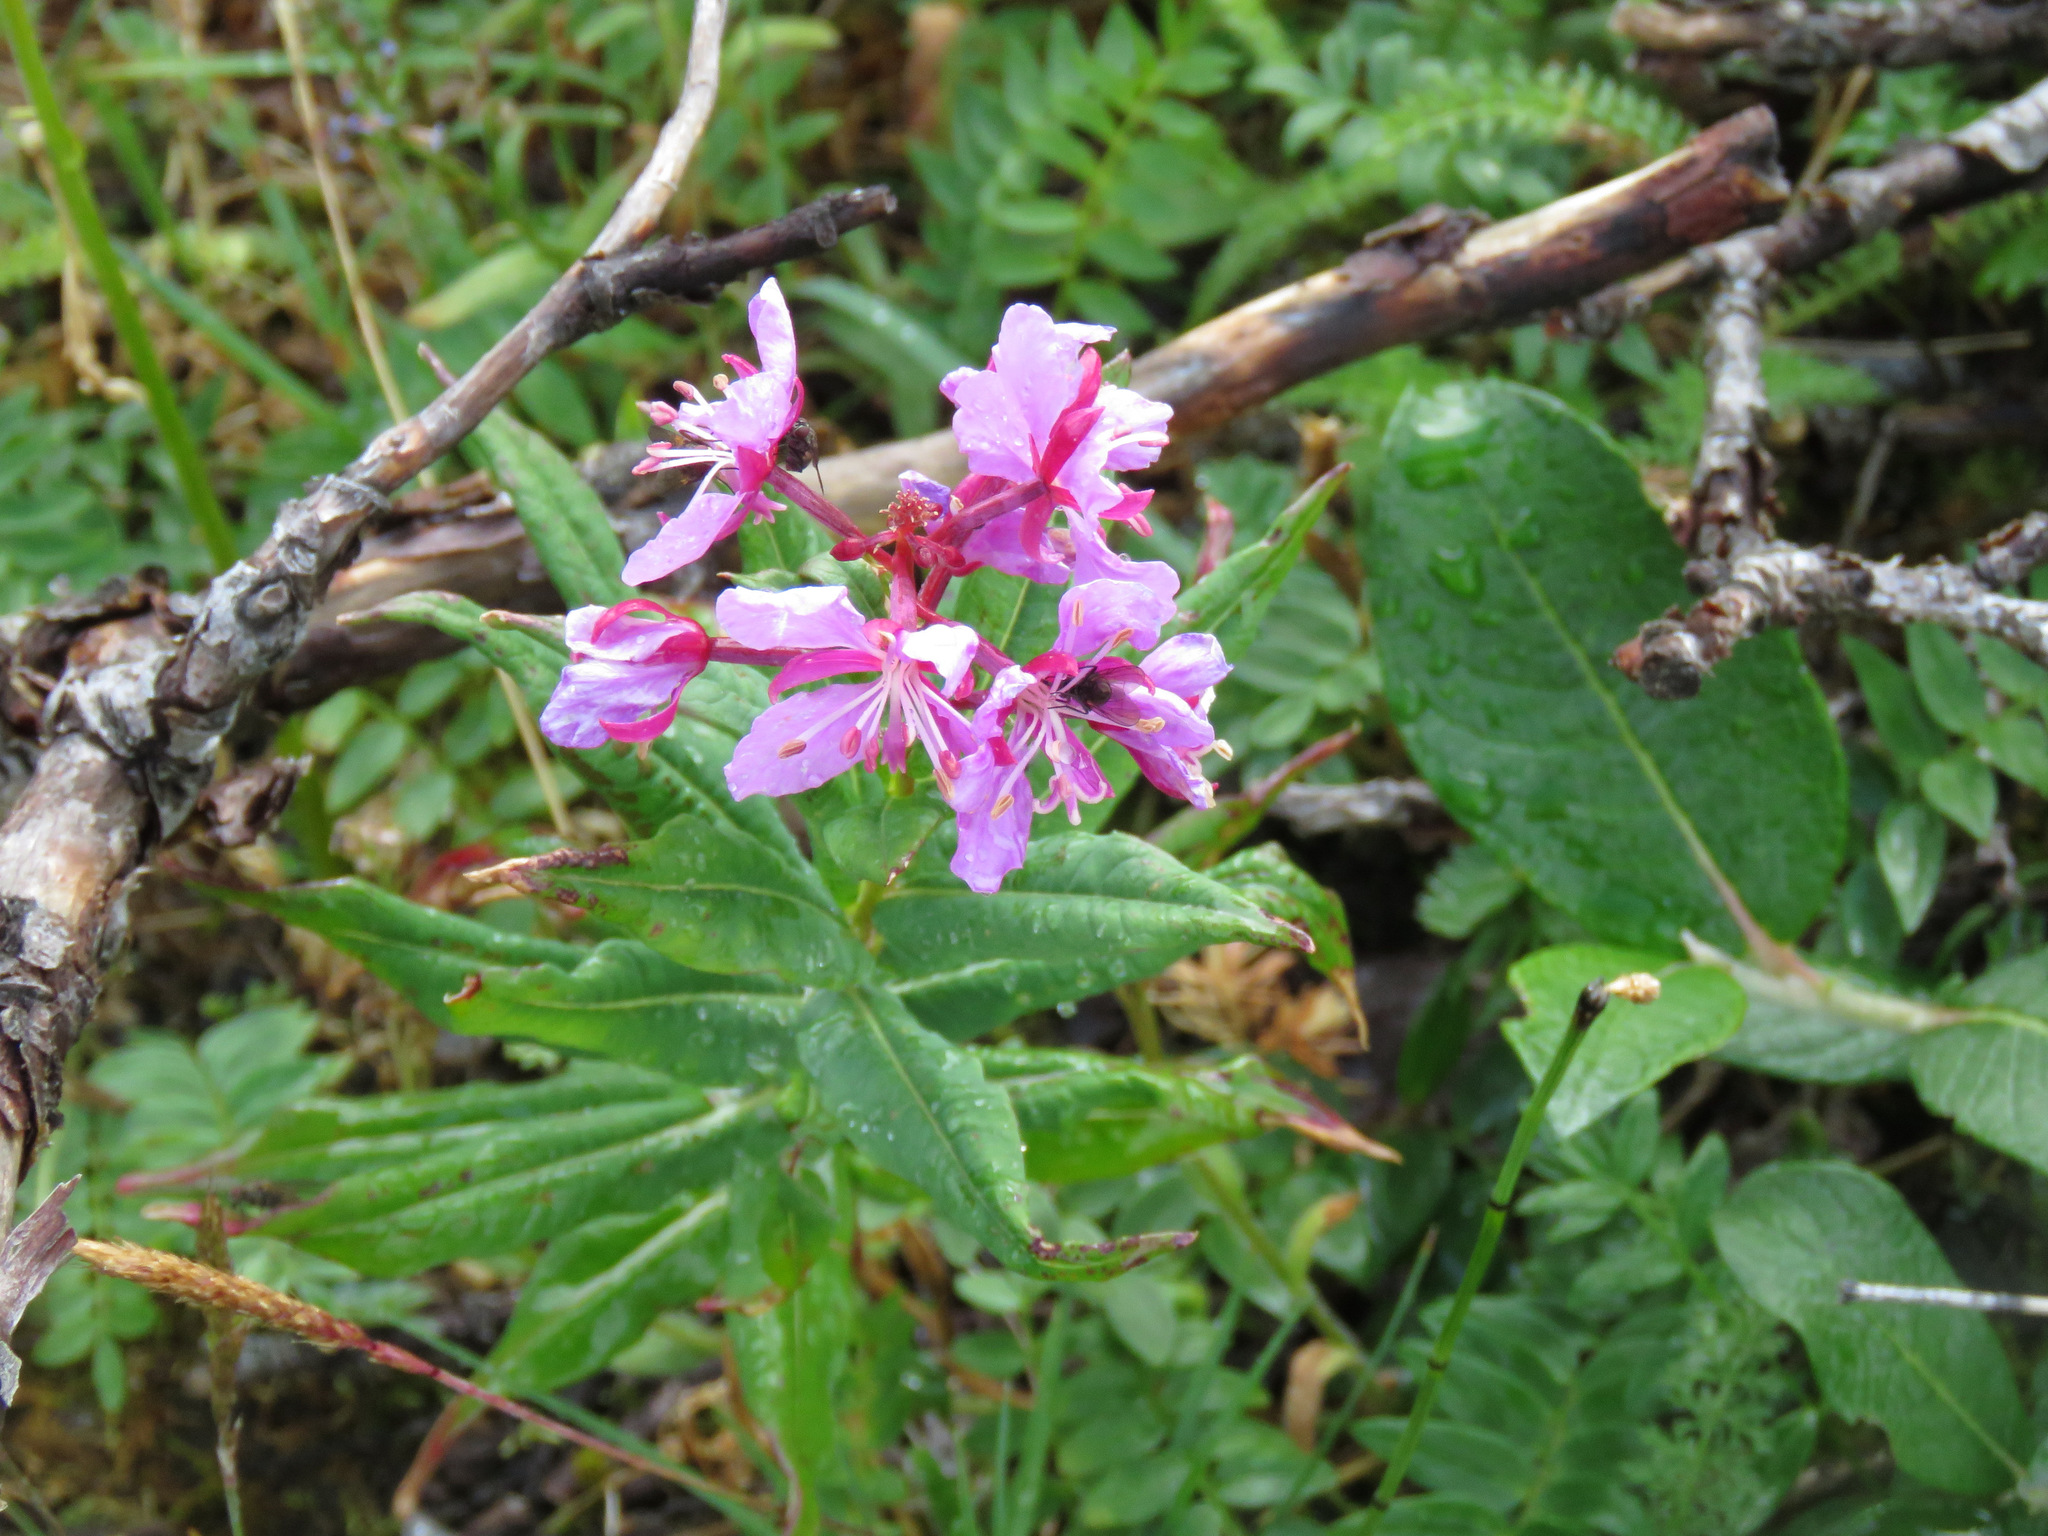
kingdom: Plantae
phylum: Tracheophyta
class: Magnoliopsida
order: Myrtales
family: Onagraceae
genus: Chamaenerion
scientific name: Chamaenerion angustifolium
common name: Fireweed
